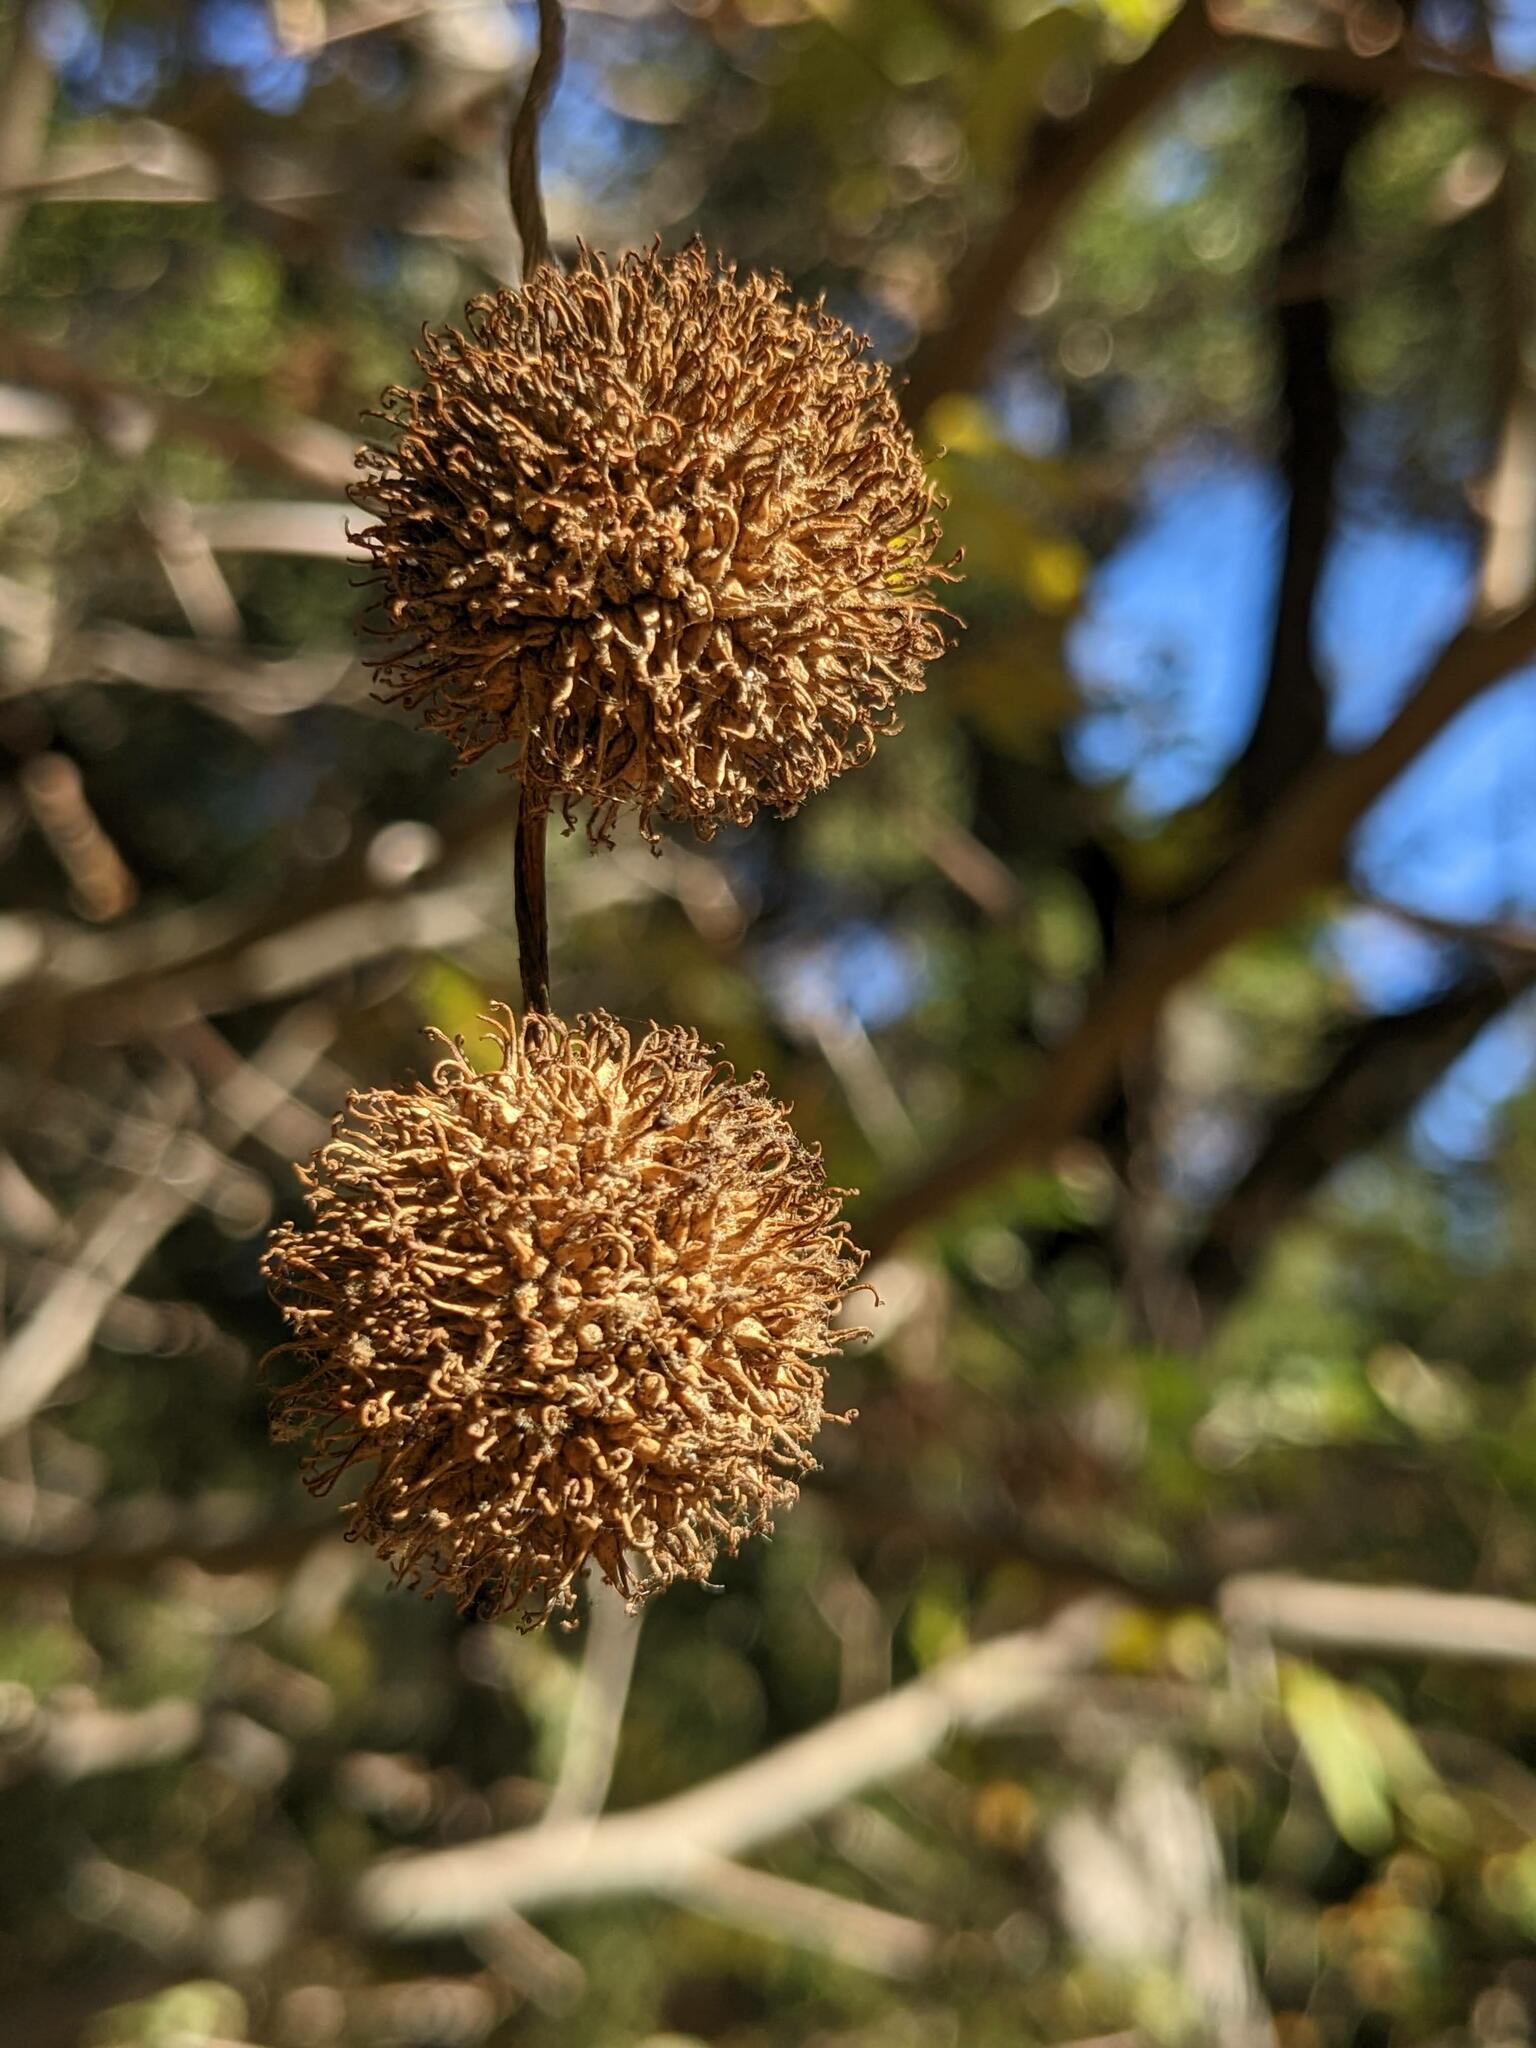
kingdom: Plantae
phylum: Tracheophyta
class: Magnoliopsida
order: Proteales
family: Platanaceae
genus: Platanus
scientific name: Platanus racemosa
